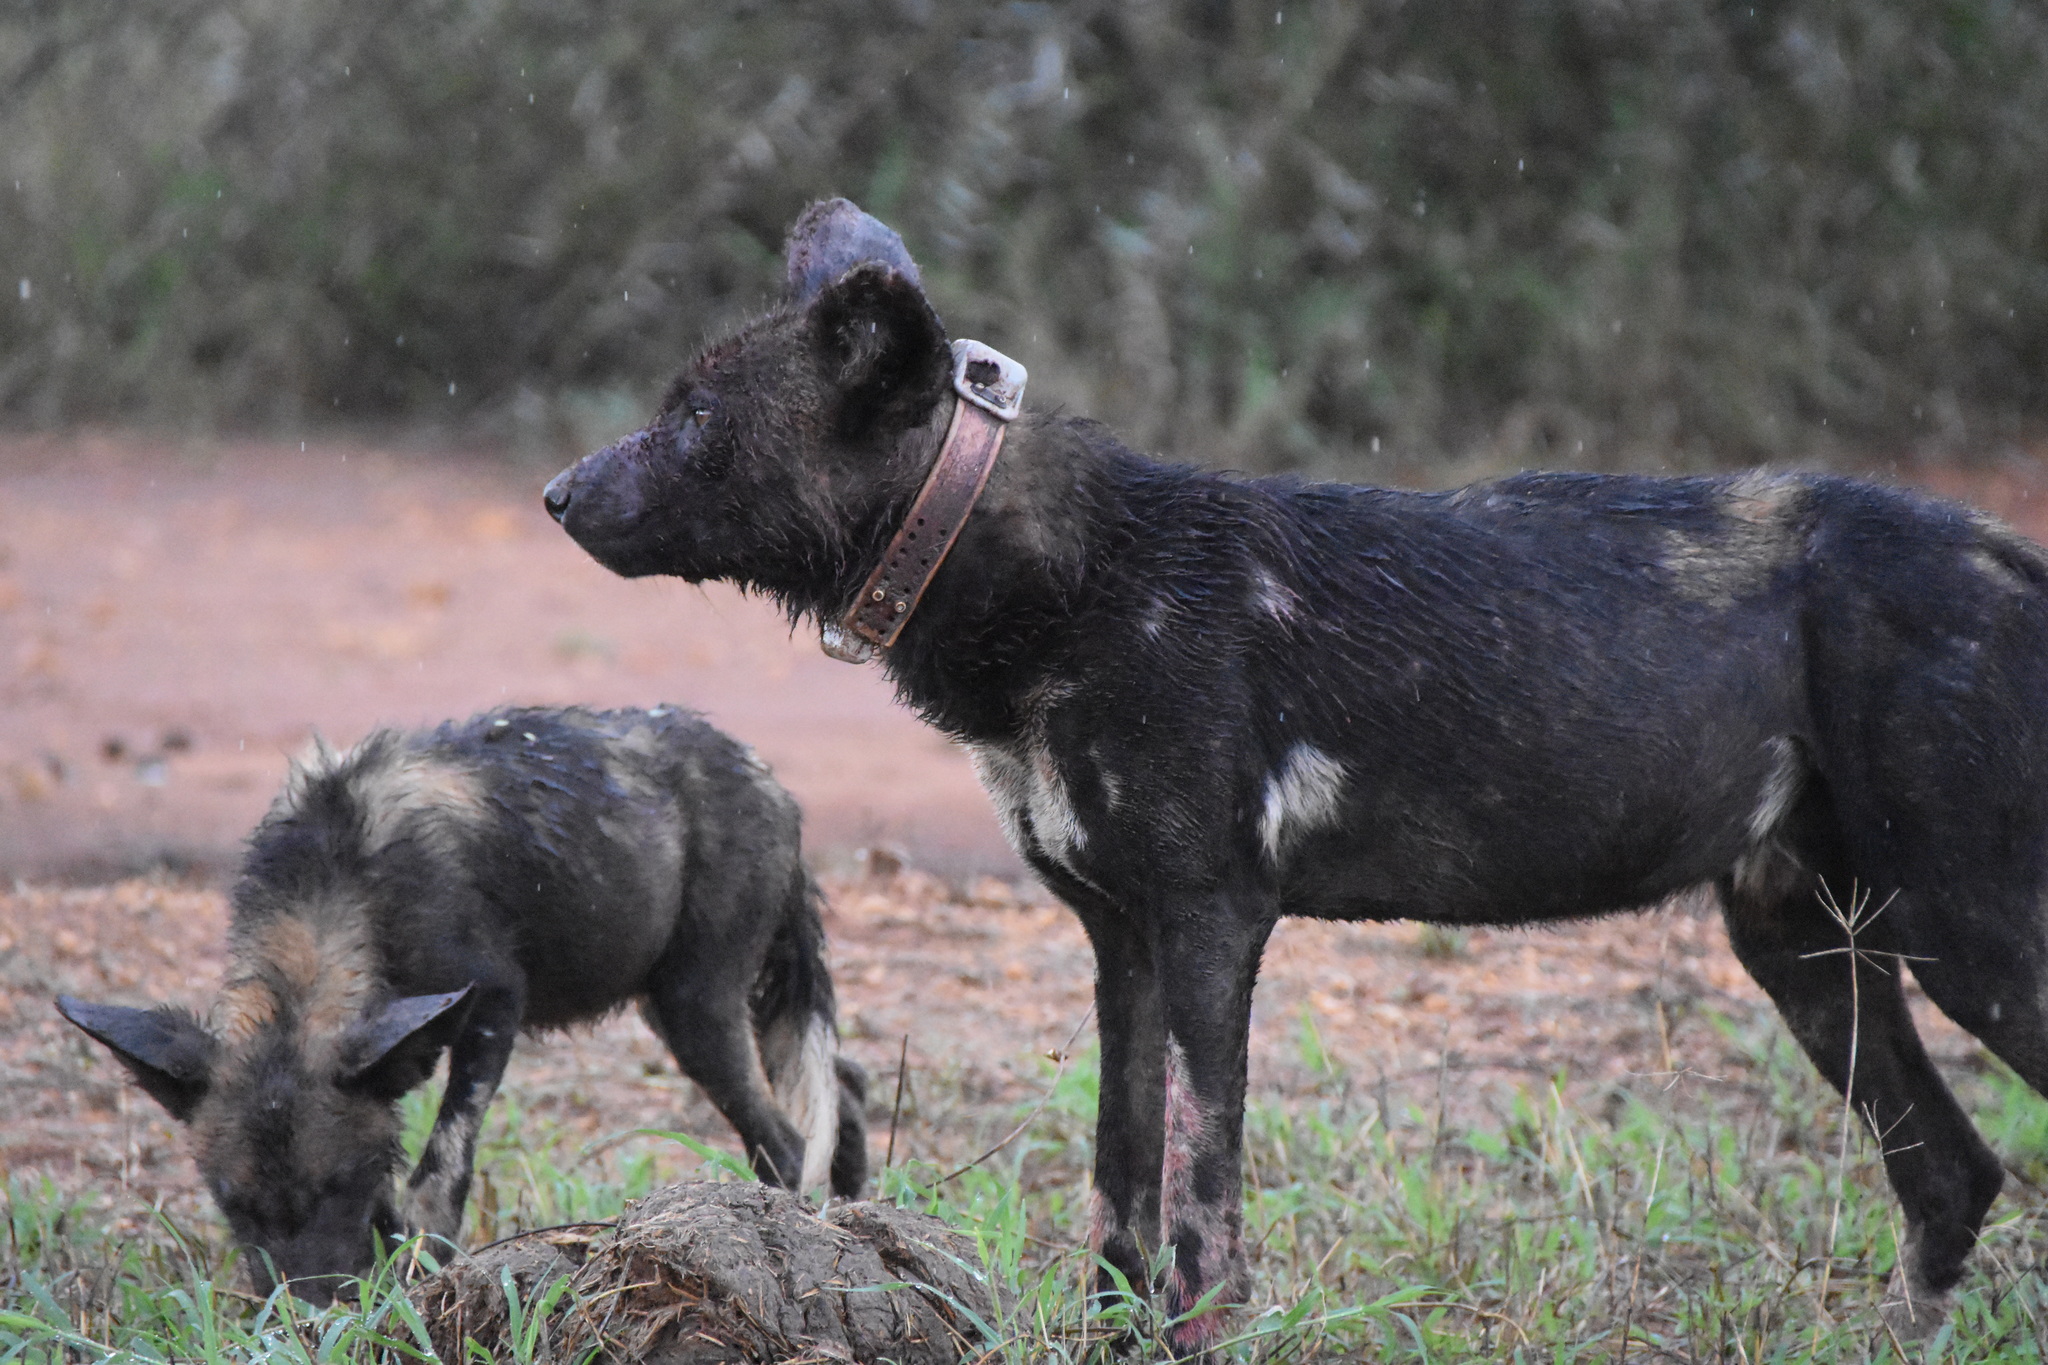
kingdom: Animalia
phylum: Chordata
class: Mammalia
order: Carnivora
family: Canidae
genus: Lycaon
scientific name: Lycaon pictus
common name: African wild dog
